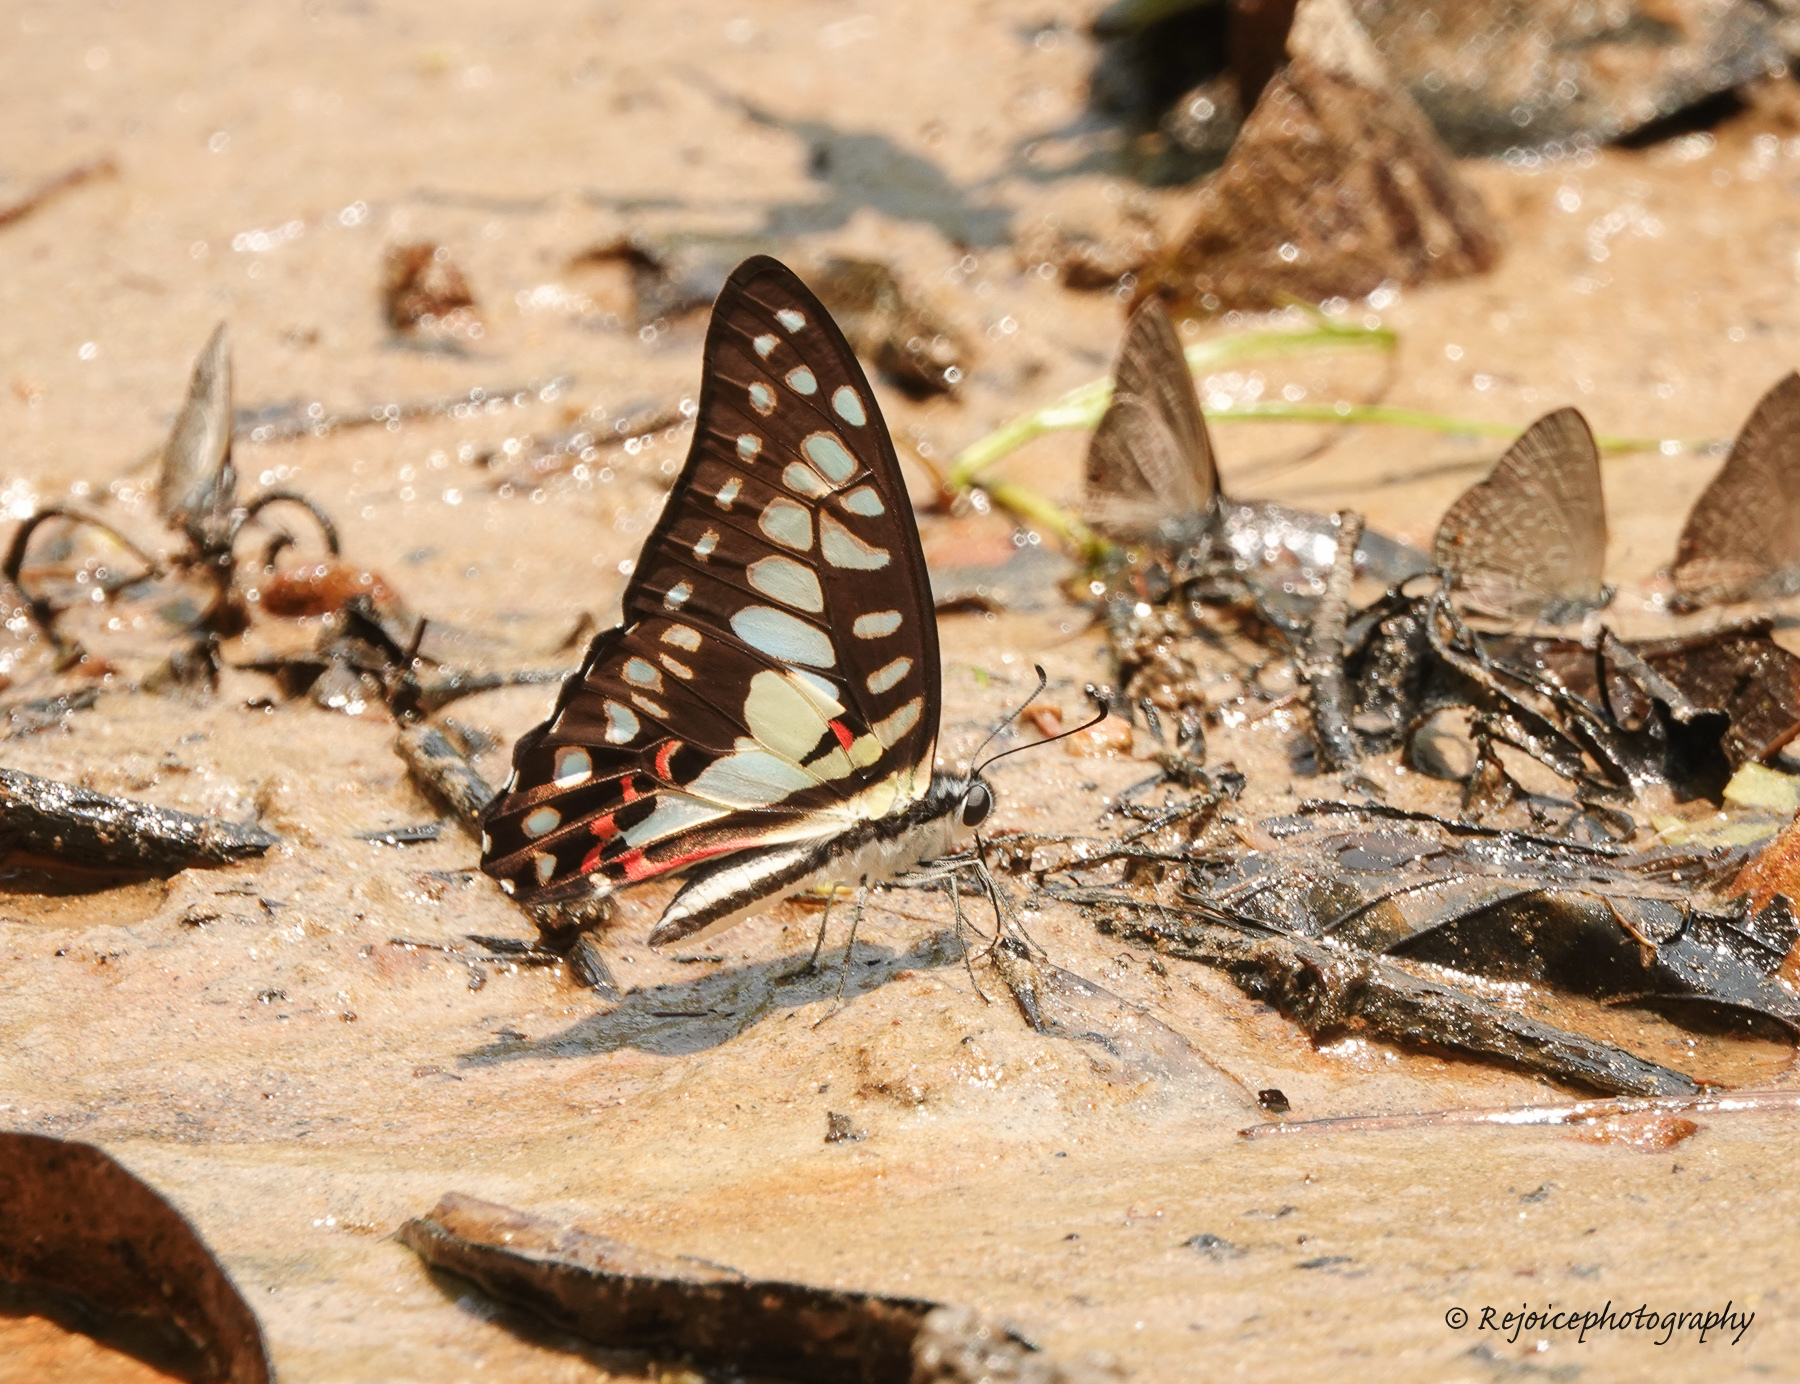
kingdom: Animalia
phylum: Arthropoda
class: Insecta
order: Lepidoptera
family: Papilionidae
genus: Graphium
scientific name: Graphium doson
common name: Common jay
